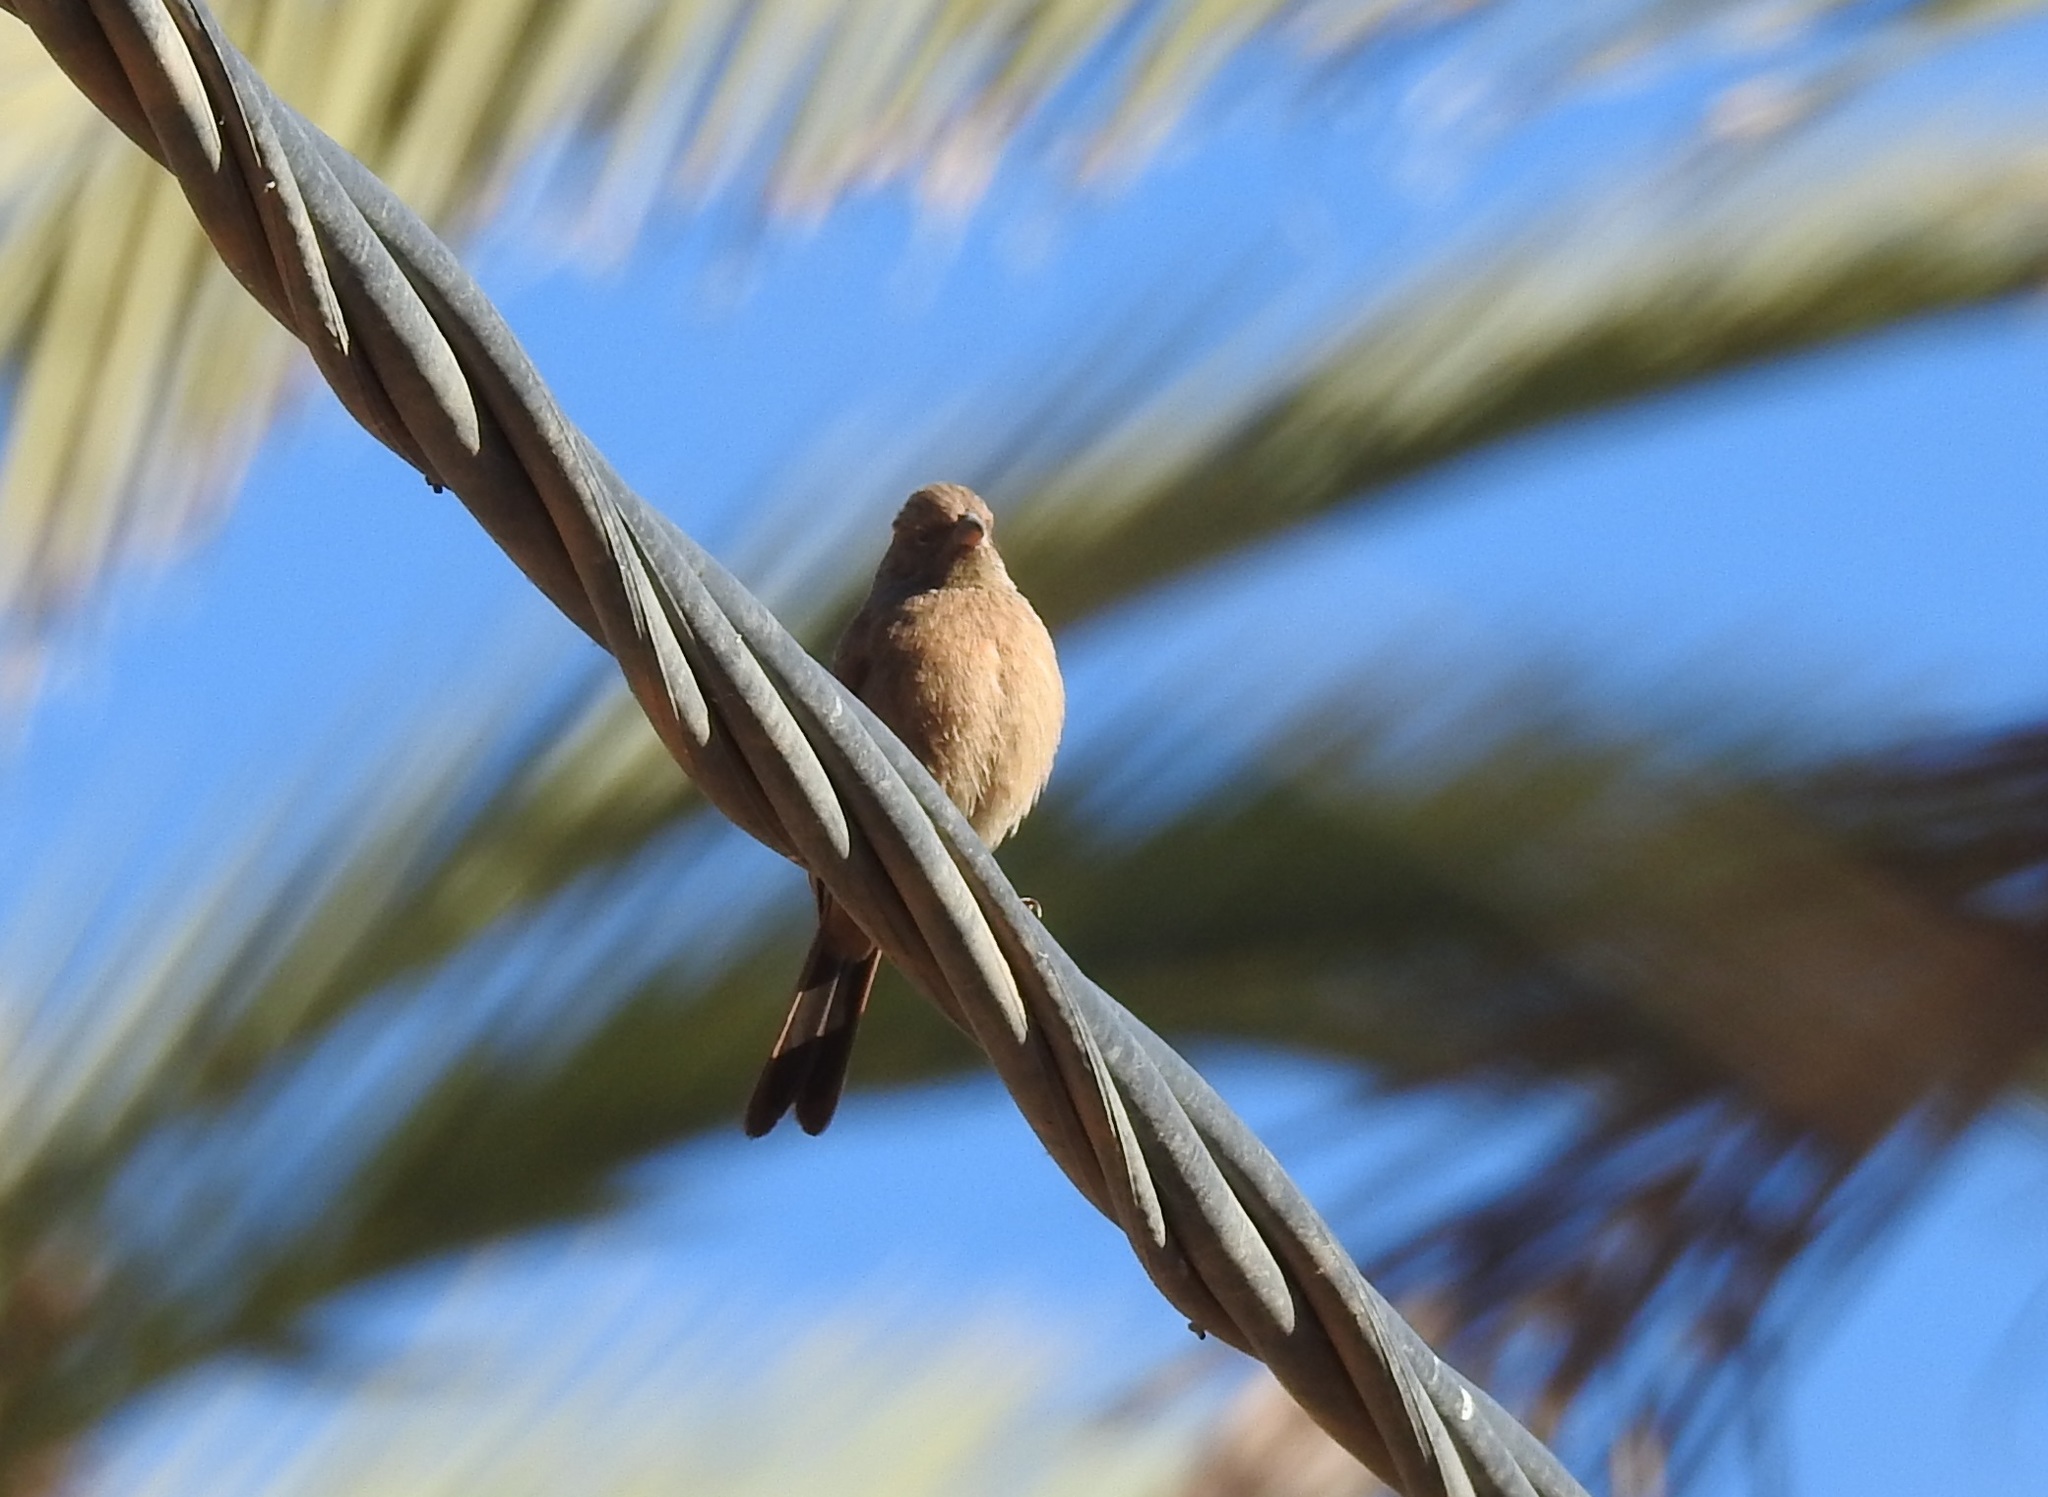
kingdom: Animalia
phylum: Chordata
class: Aves
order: Passeriformes
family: Emberizidae
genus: Emberiza
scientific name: Emberiza sahari
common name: House bunting
